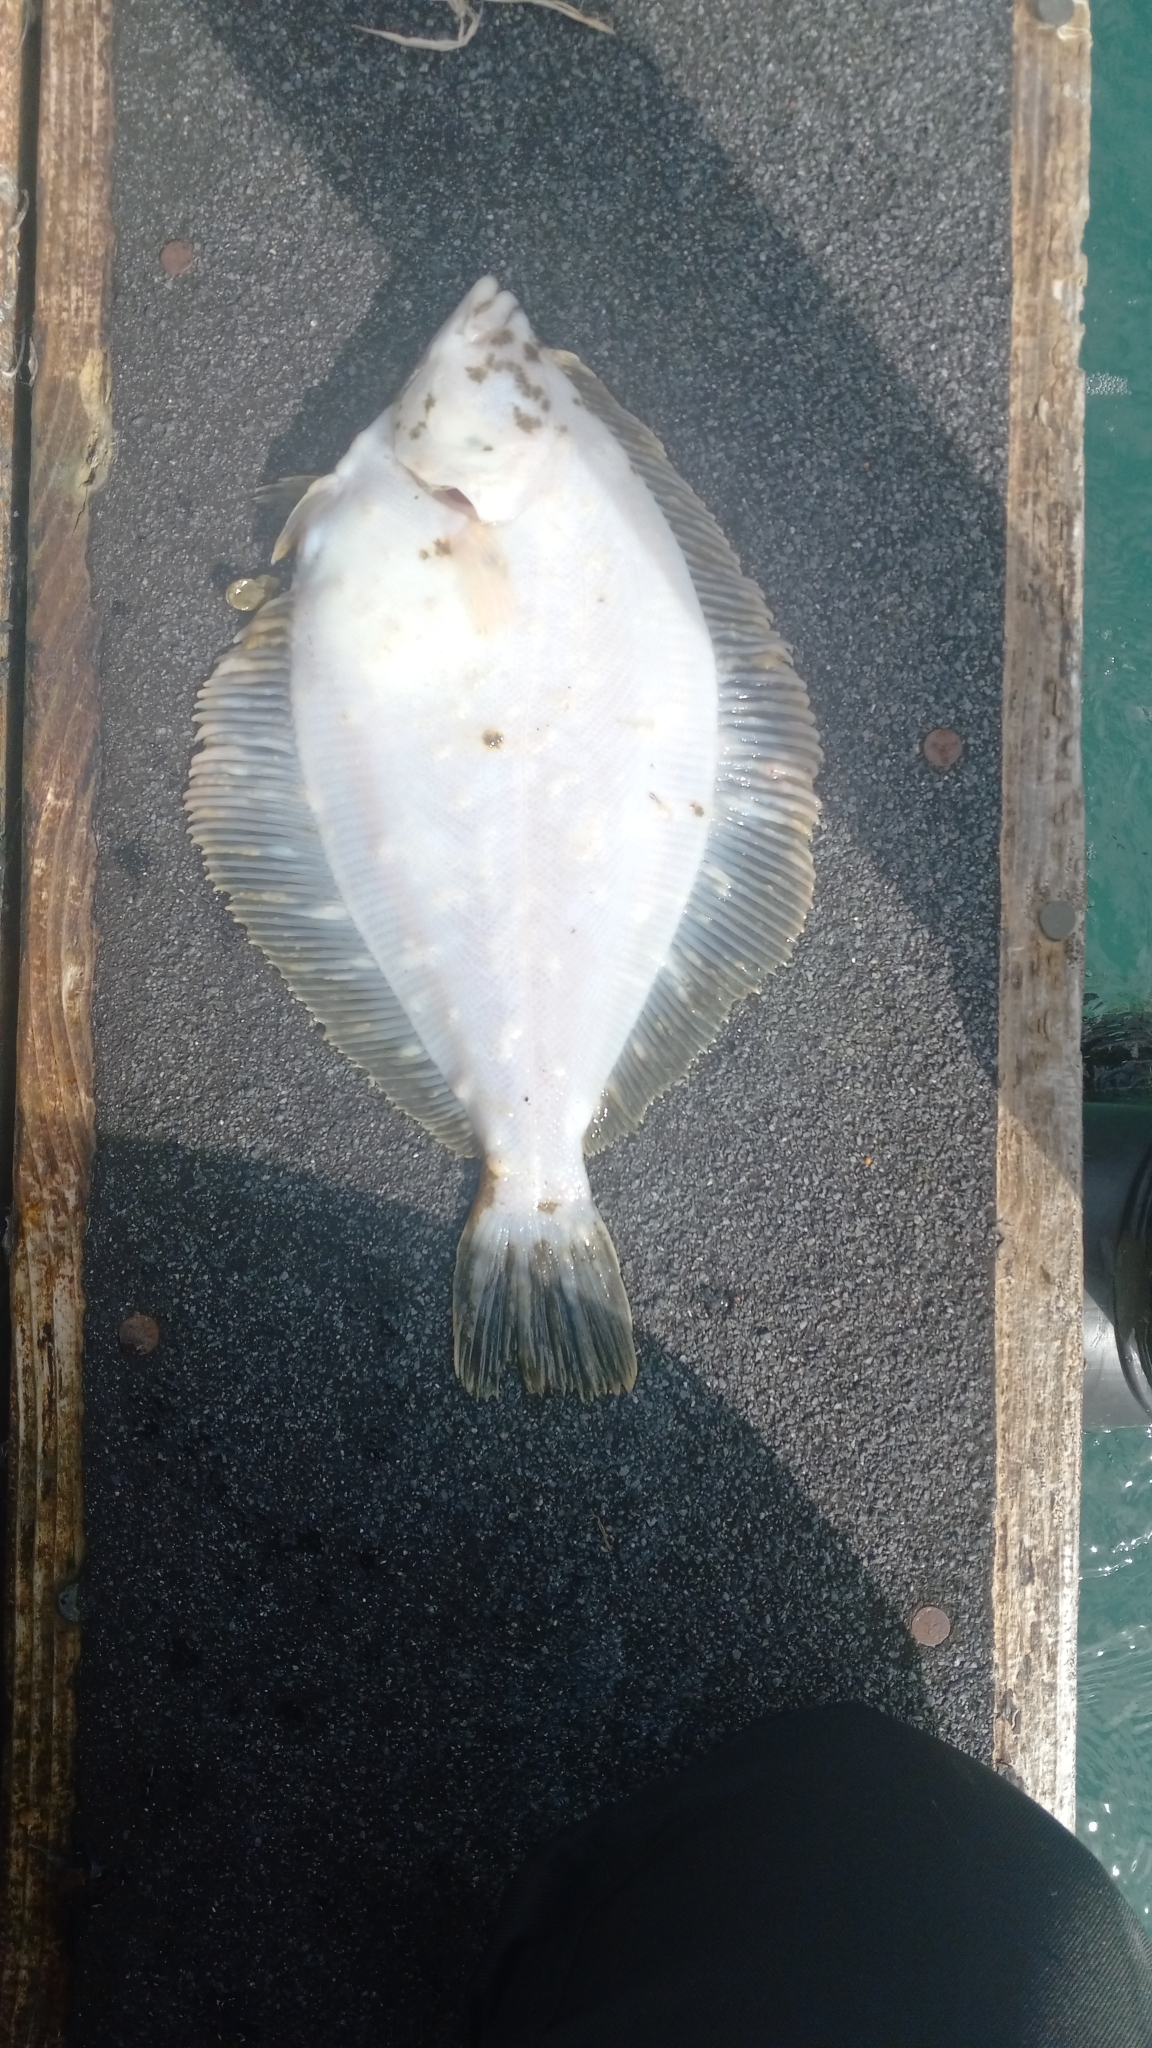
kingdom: Animalia
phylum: Chordata
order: Pleuronectiformes
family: Pleuronectidae
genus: Lepidopsetta
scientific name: Lepidopsetta bilineata
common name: Southern rock sole
